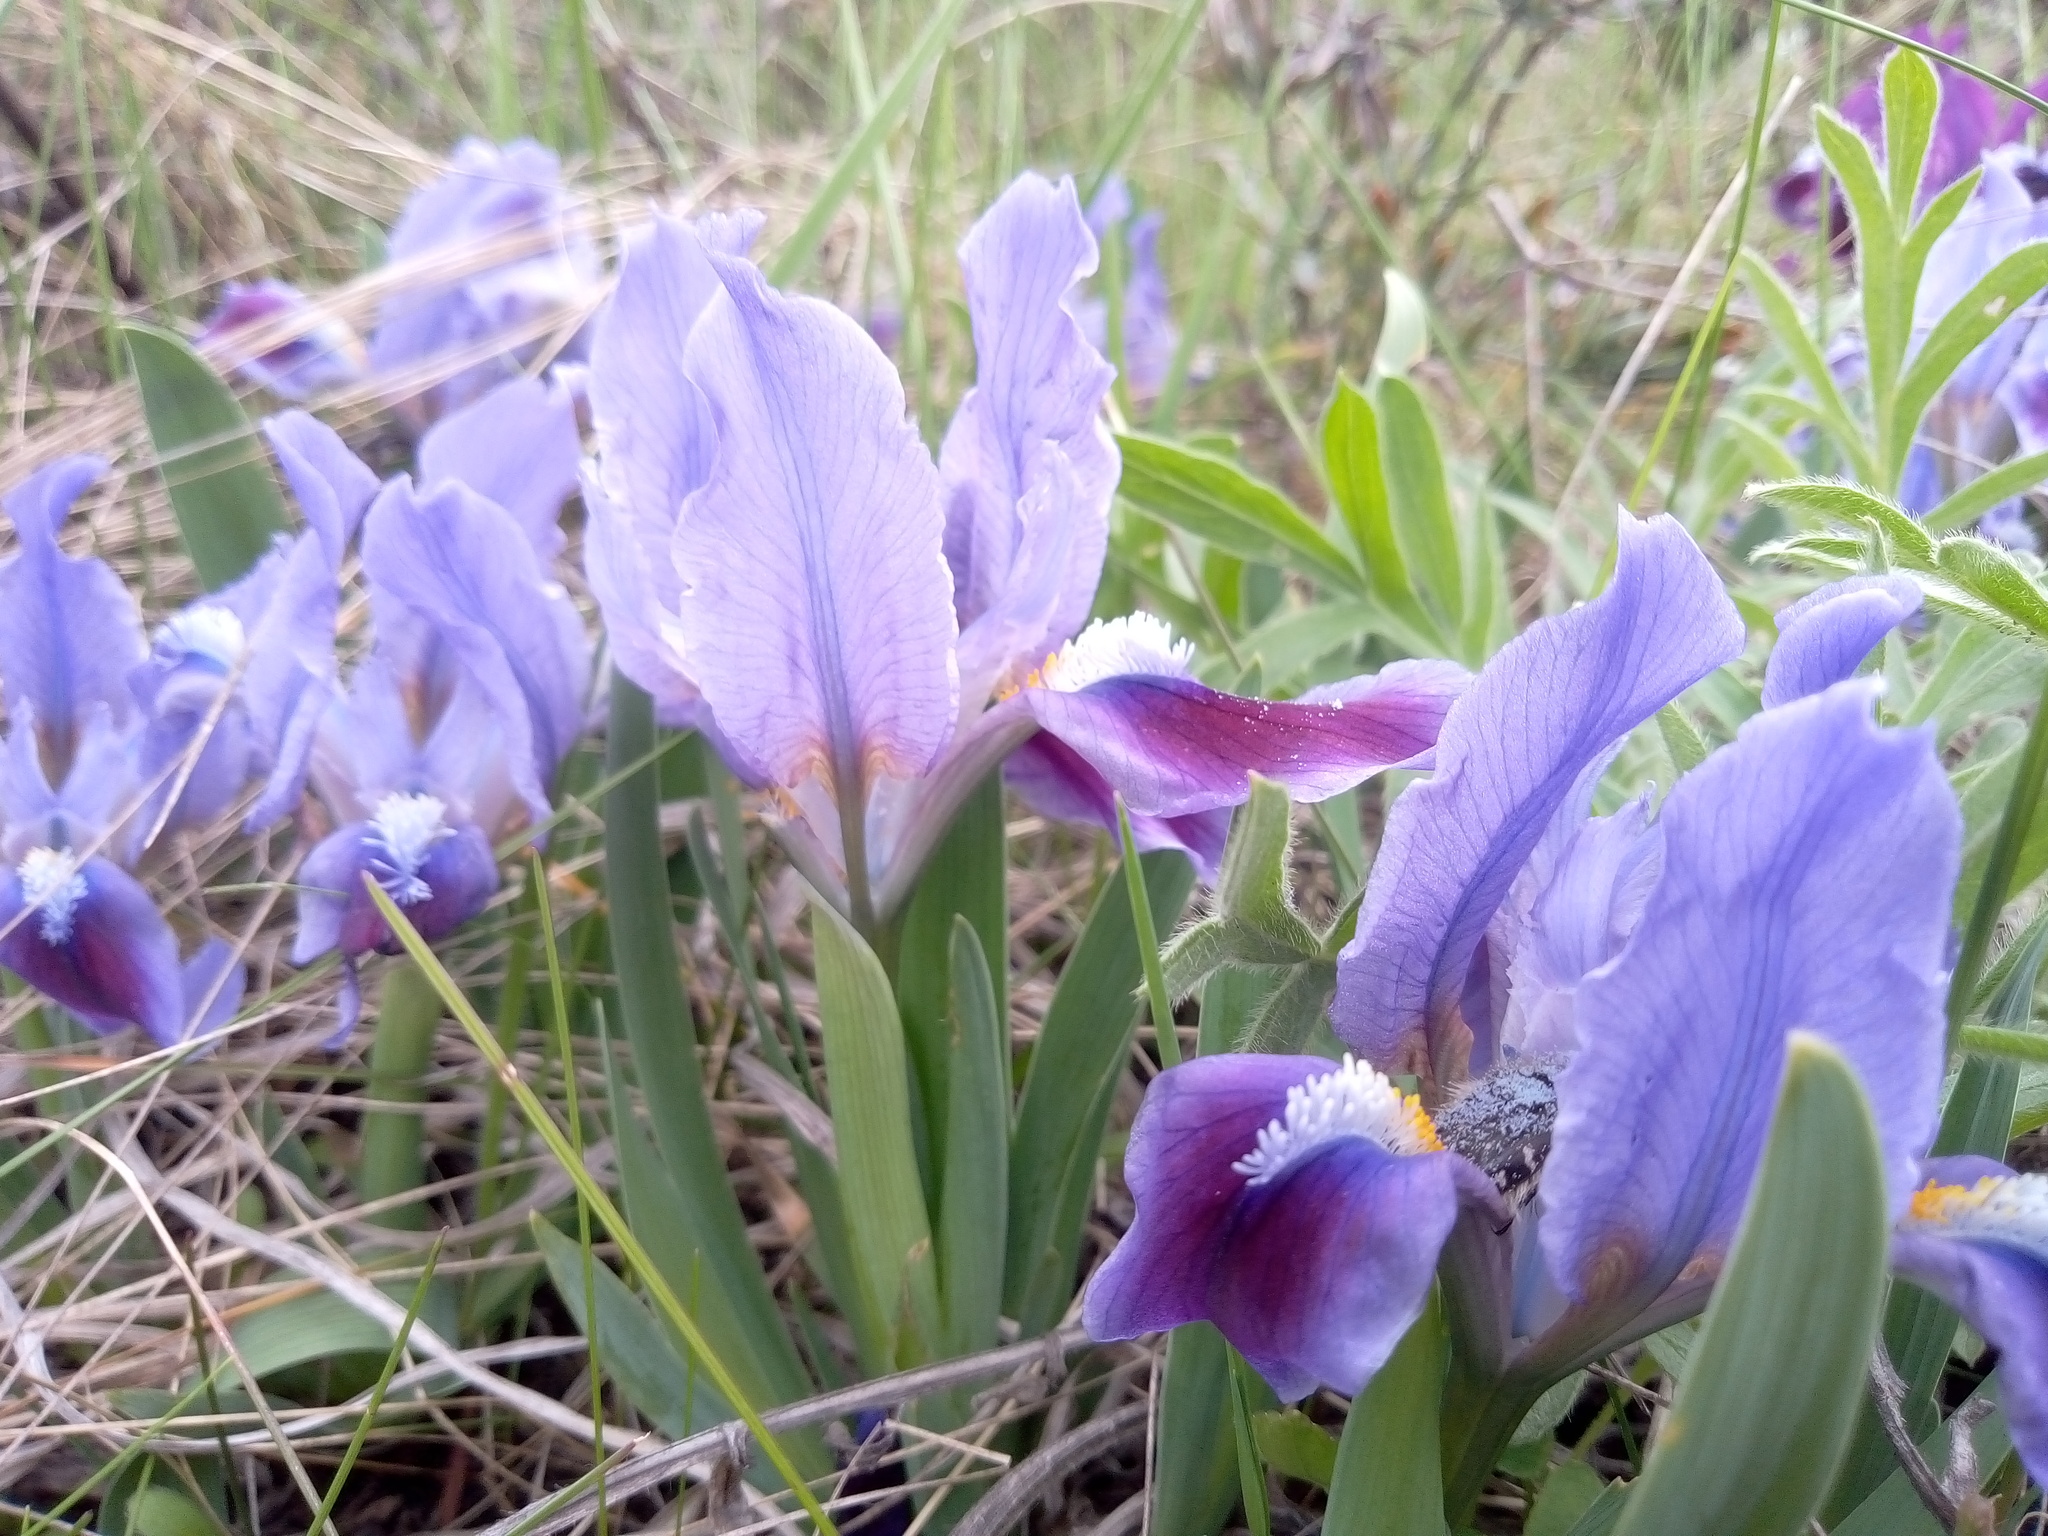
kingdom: Plantae
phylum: Tracheophyta
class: Liliopsida
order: Asparagales
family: Iridaceae
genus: Iris
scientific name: Iris pumila
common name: Dwarf iris
